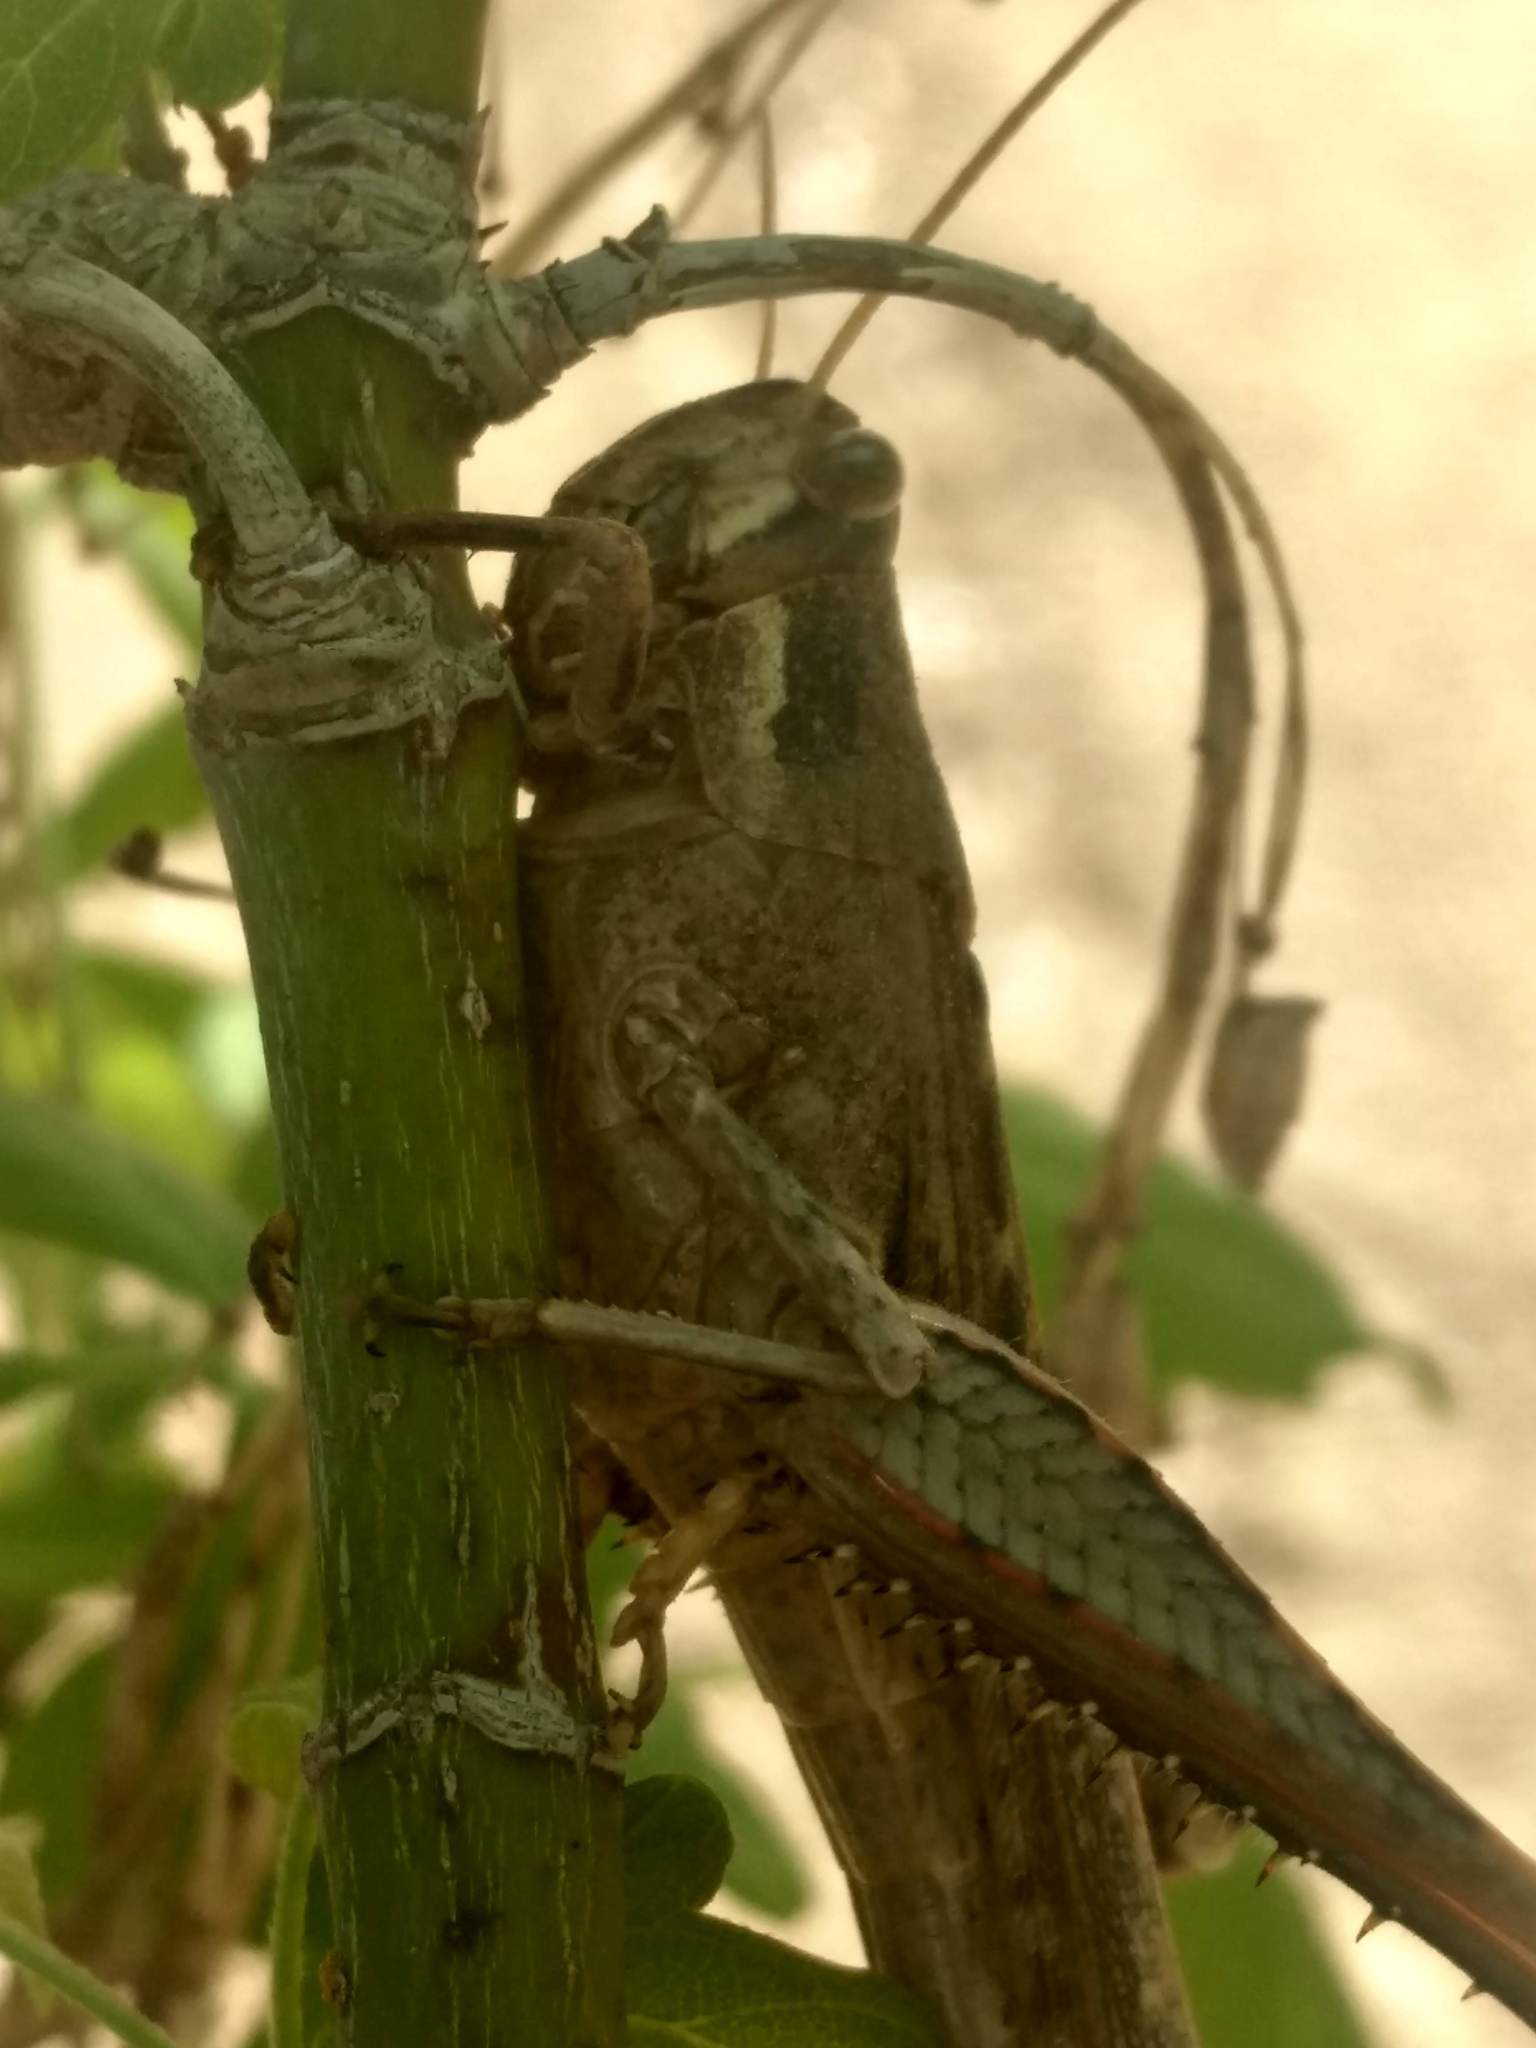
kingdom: Animalia
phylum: Arthropoda
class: Insecta
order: Orthoptera
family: Acrididae
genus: Schistocerca
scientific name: Schistocerca nitens
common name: Vagrant grasshopper
